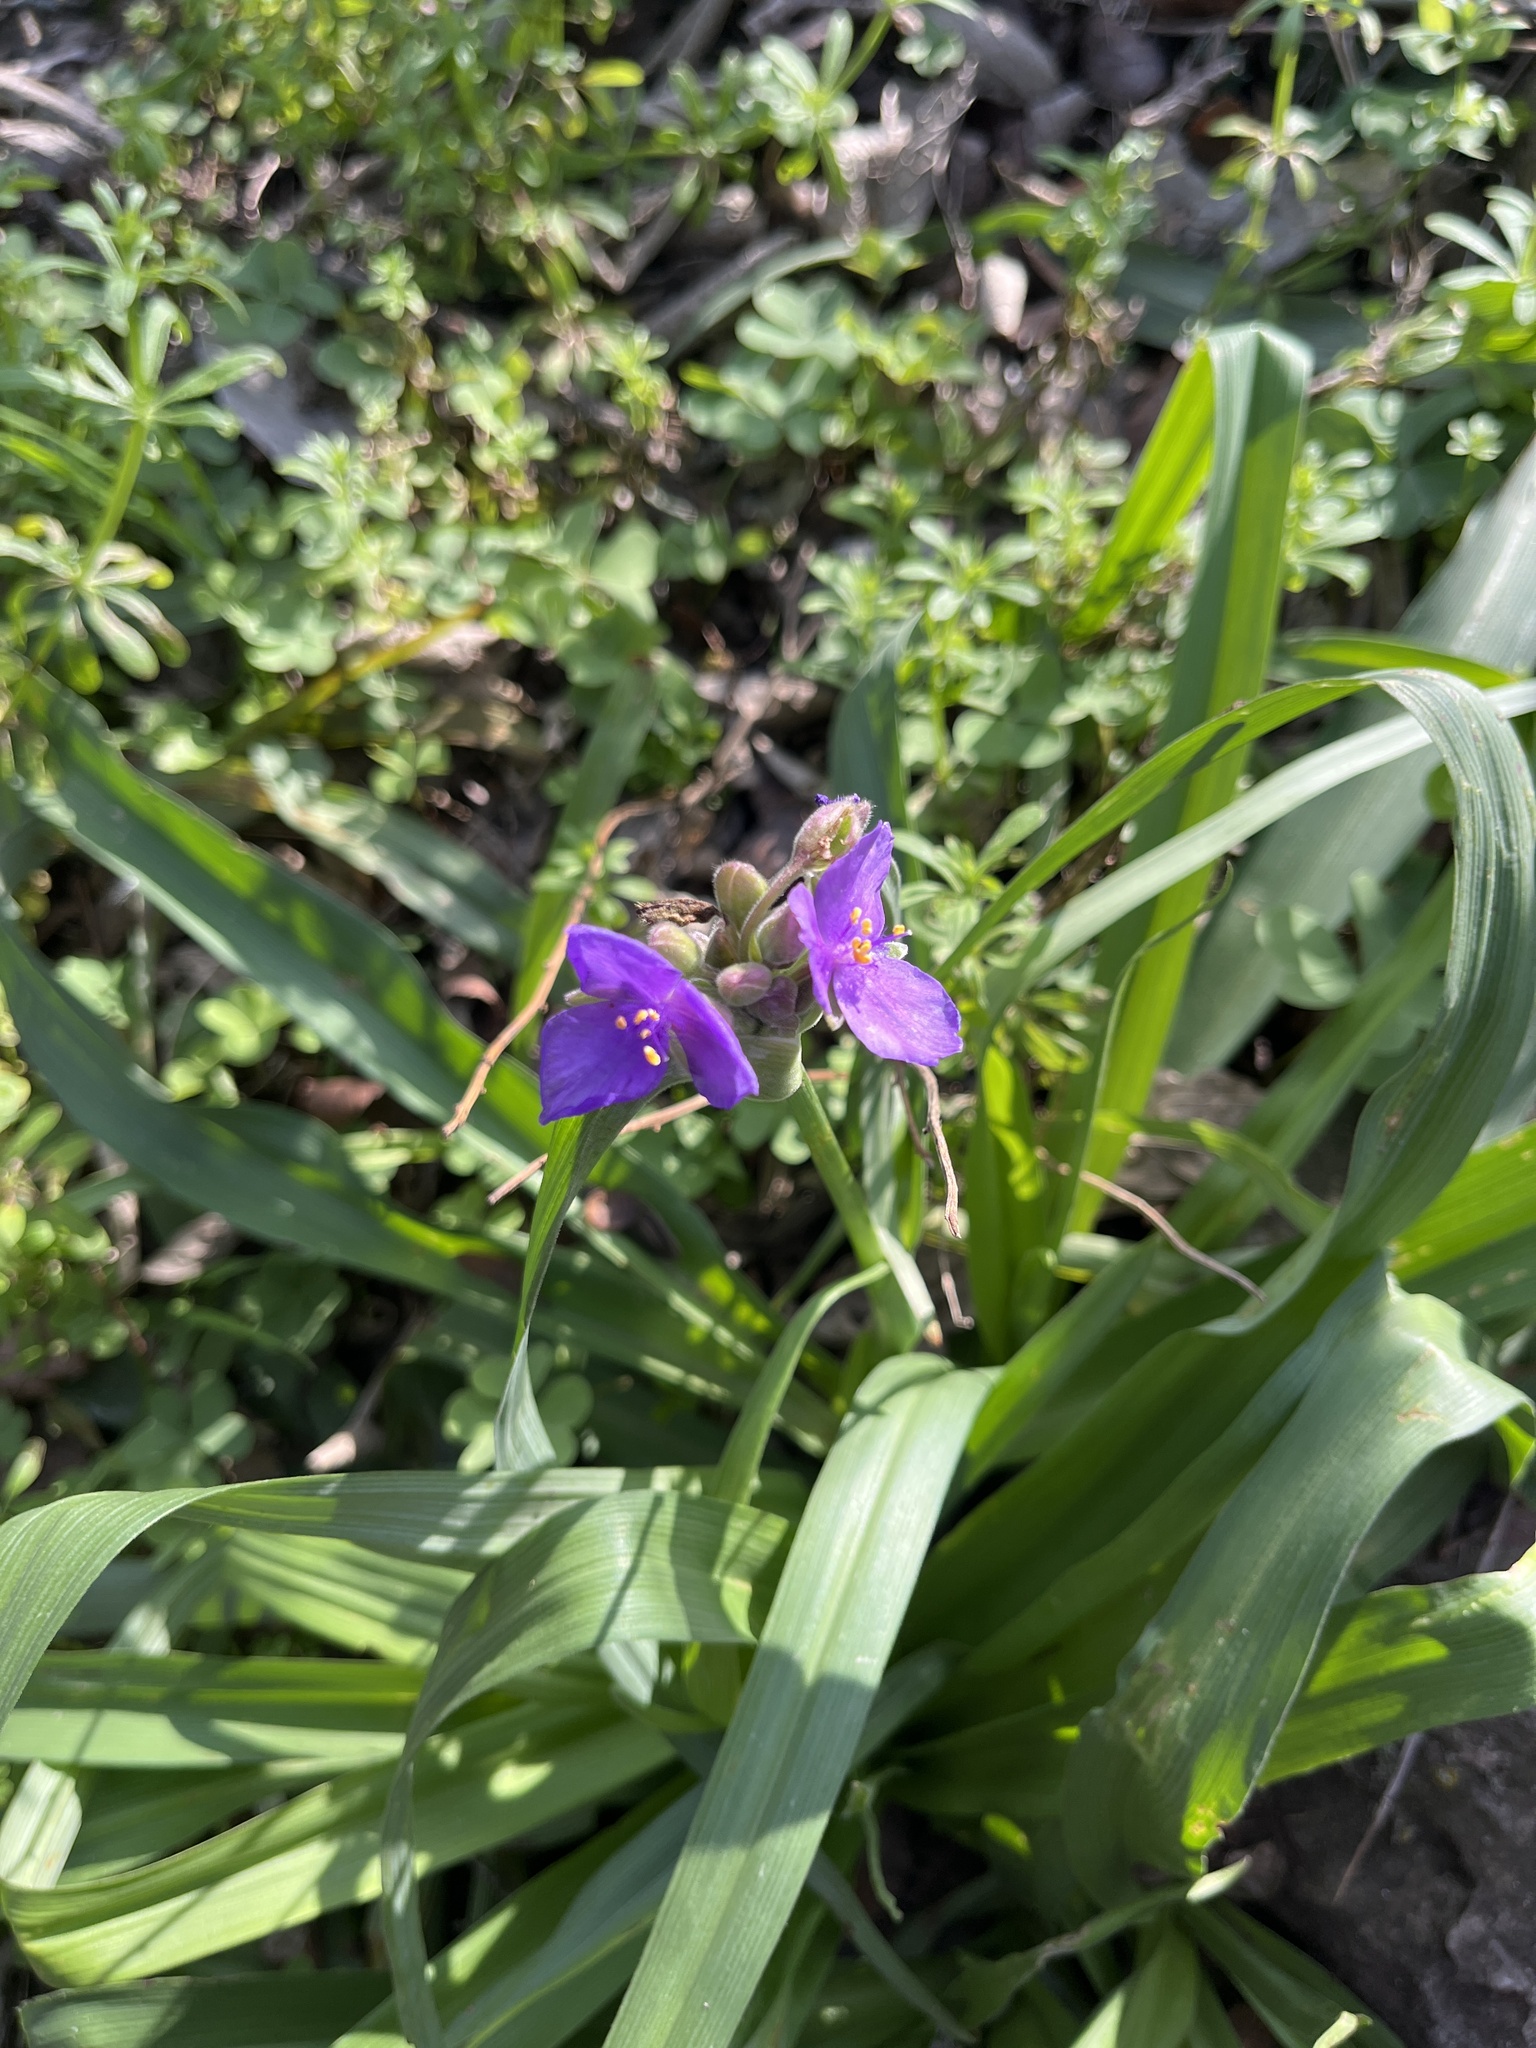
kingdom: Plantae
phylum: Tracheophyta
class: Liliopsida
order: Commelinales
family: Commelinaceae
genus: Tradescantia
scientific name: Tradescantia gigantea
